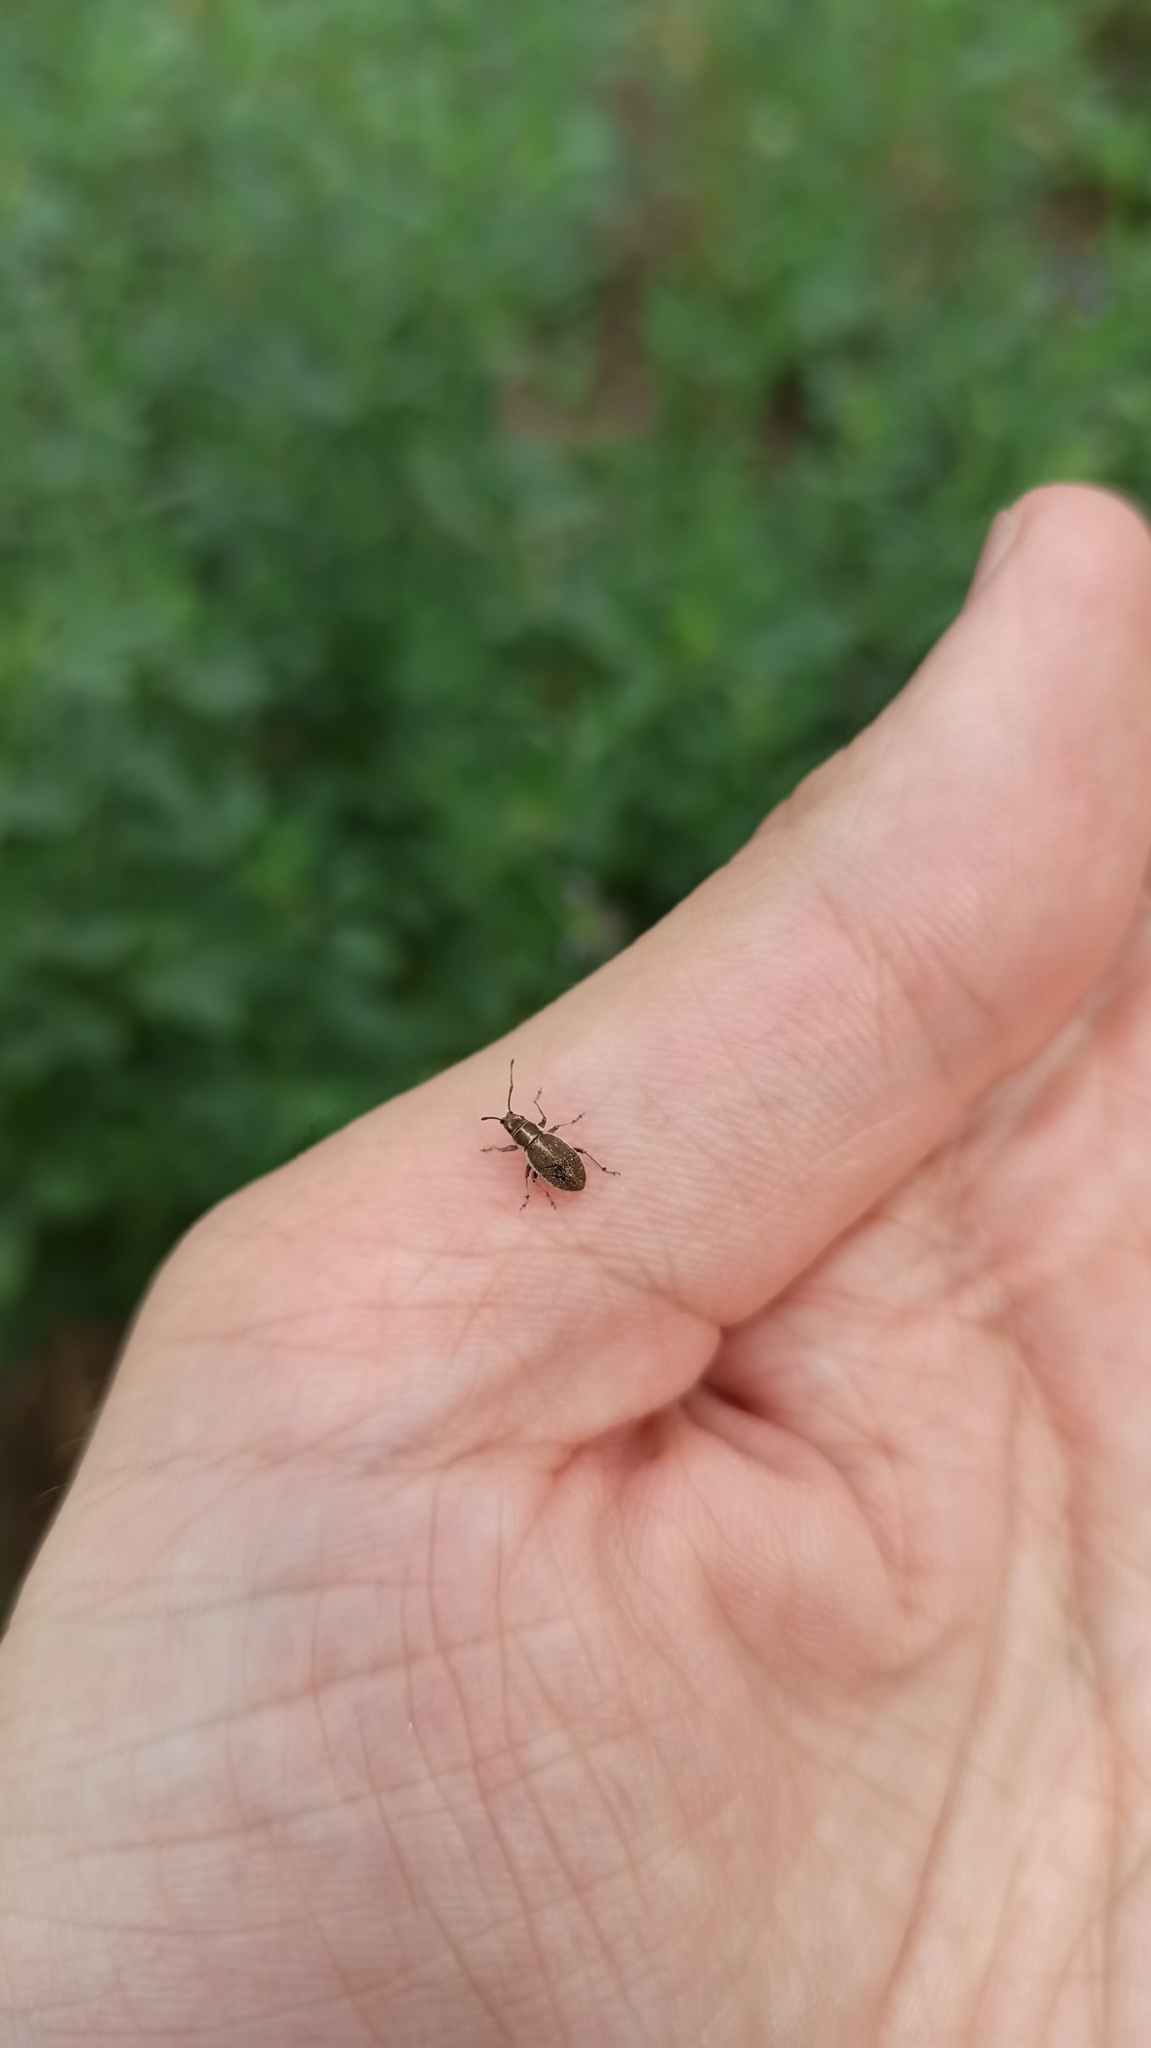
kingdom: Animalia
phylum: Arthropoda
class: Insecta
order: Coleoptera
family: Curculionidae
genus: Ptochus
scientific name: Ptochus porcellus
